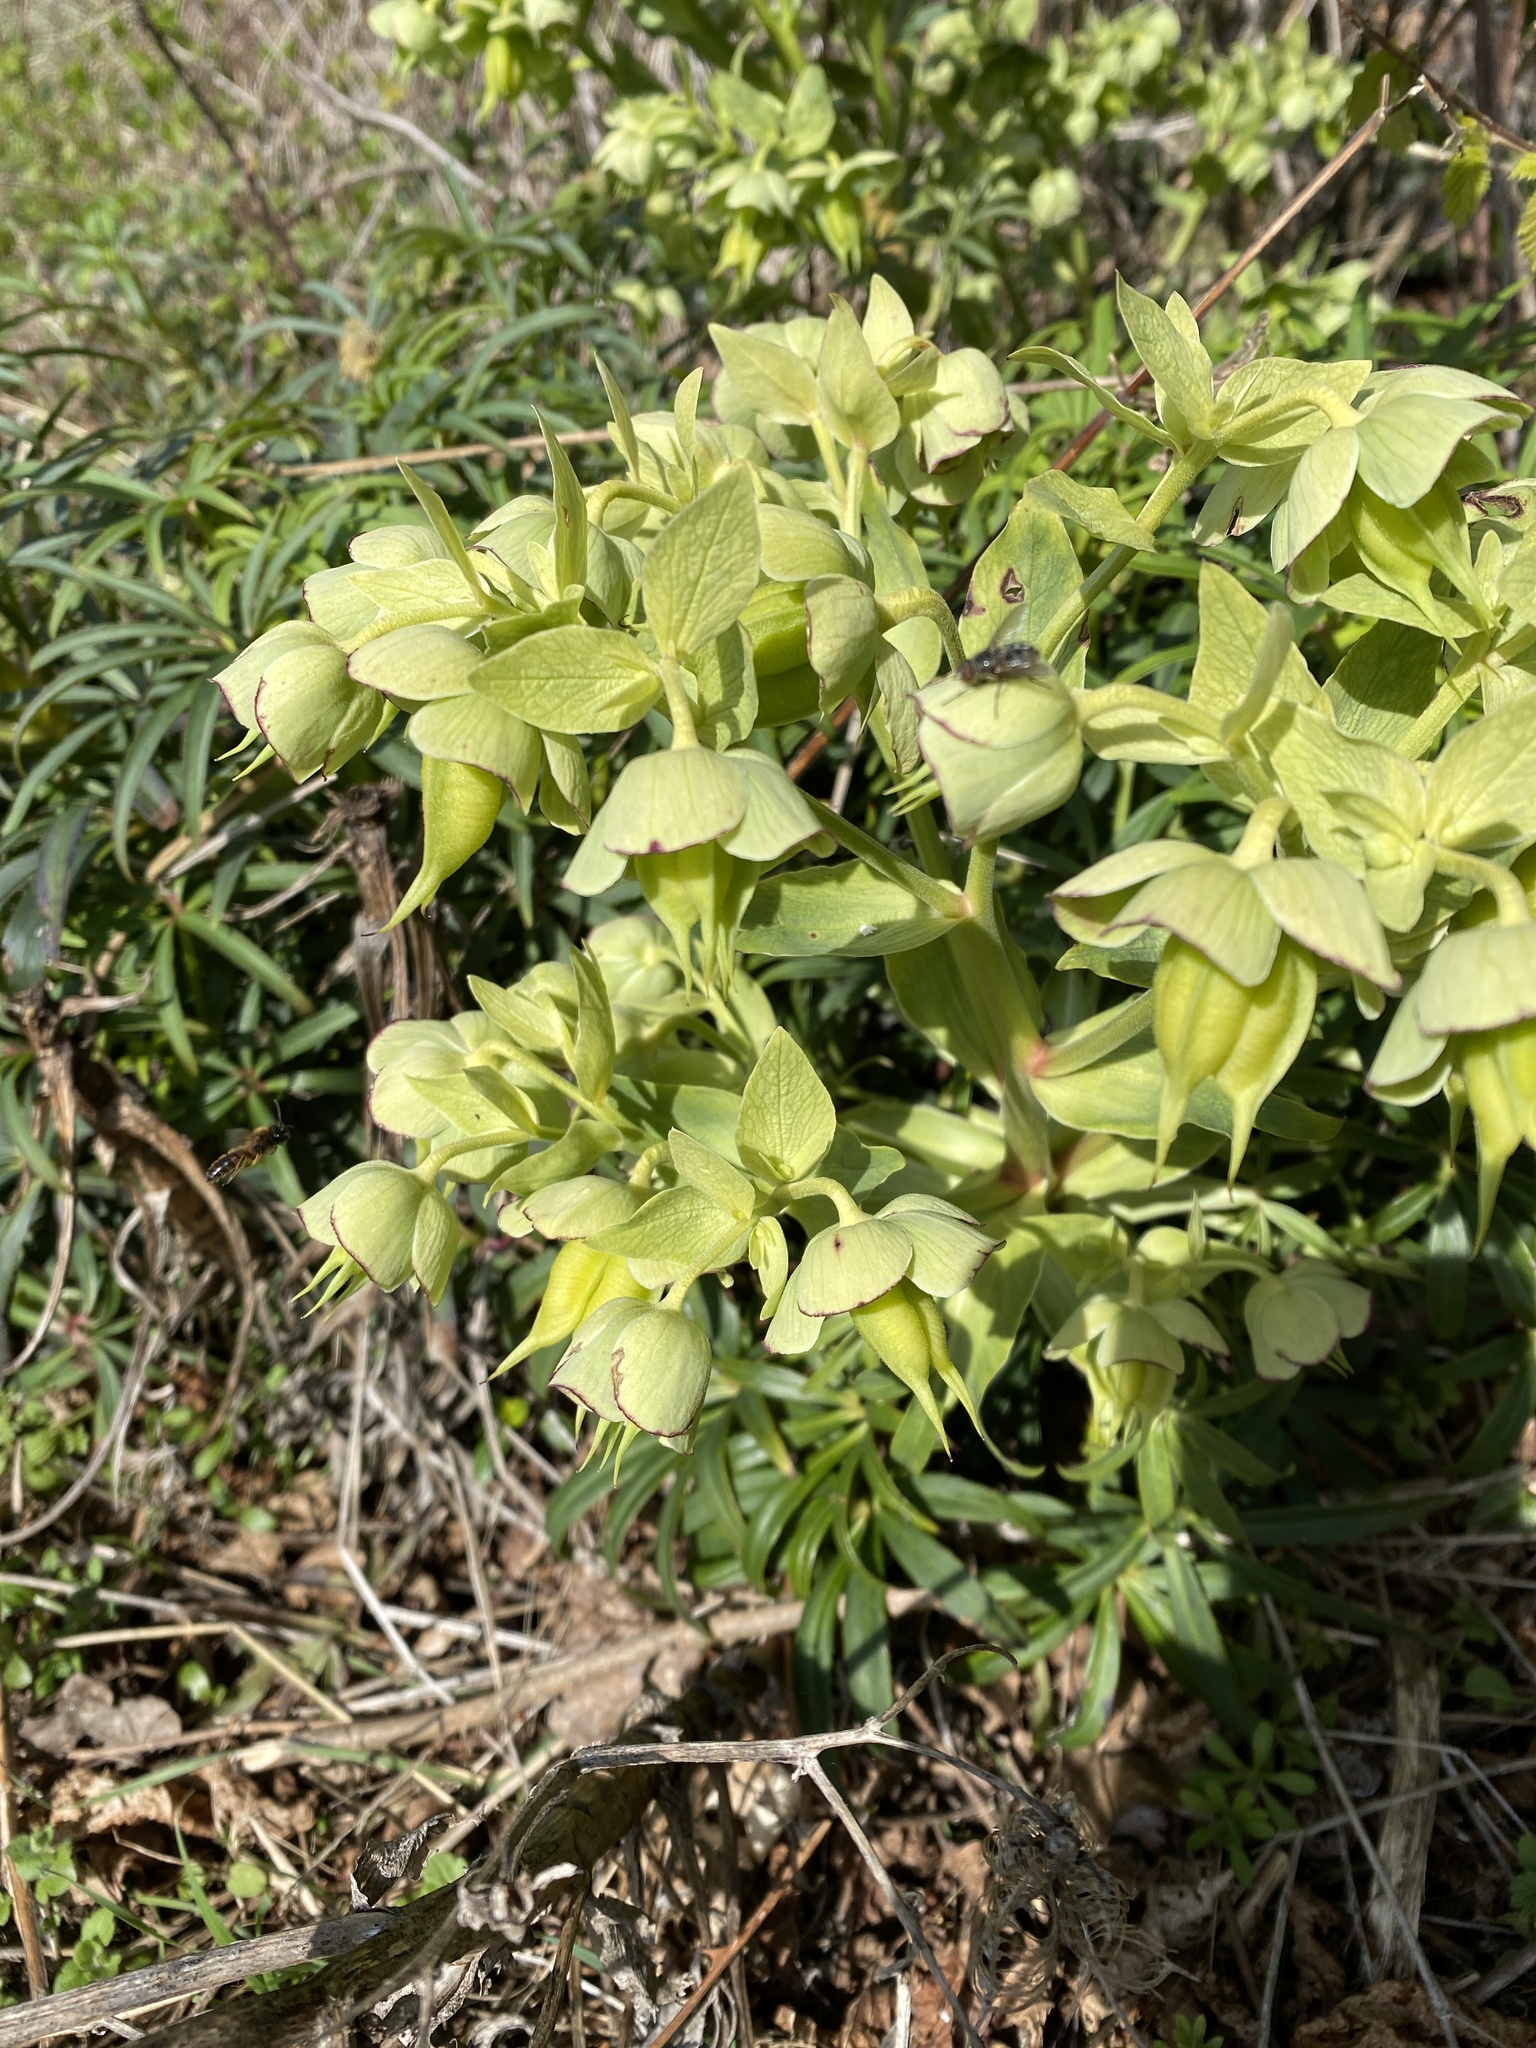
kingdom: Plantae
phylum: Tracheophyta
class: Magnoliopsida
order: Ranunculales
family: Ranunculaceae
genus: Helleborus
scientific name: Helleborus foetidus
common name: Stinking hellebore
